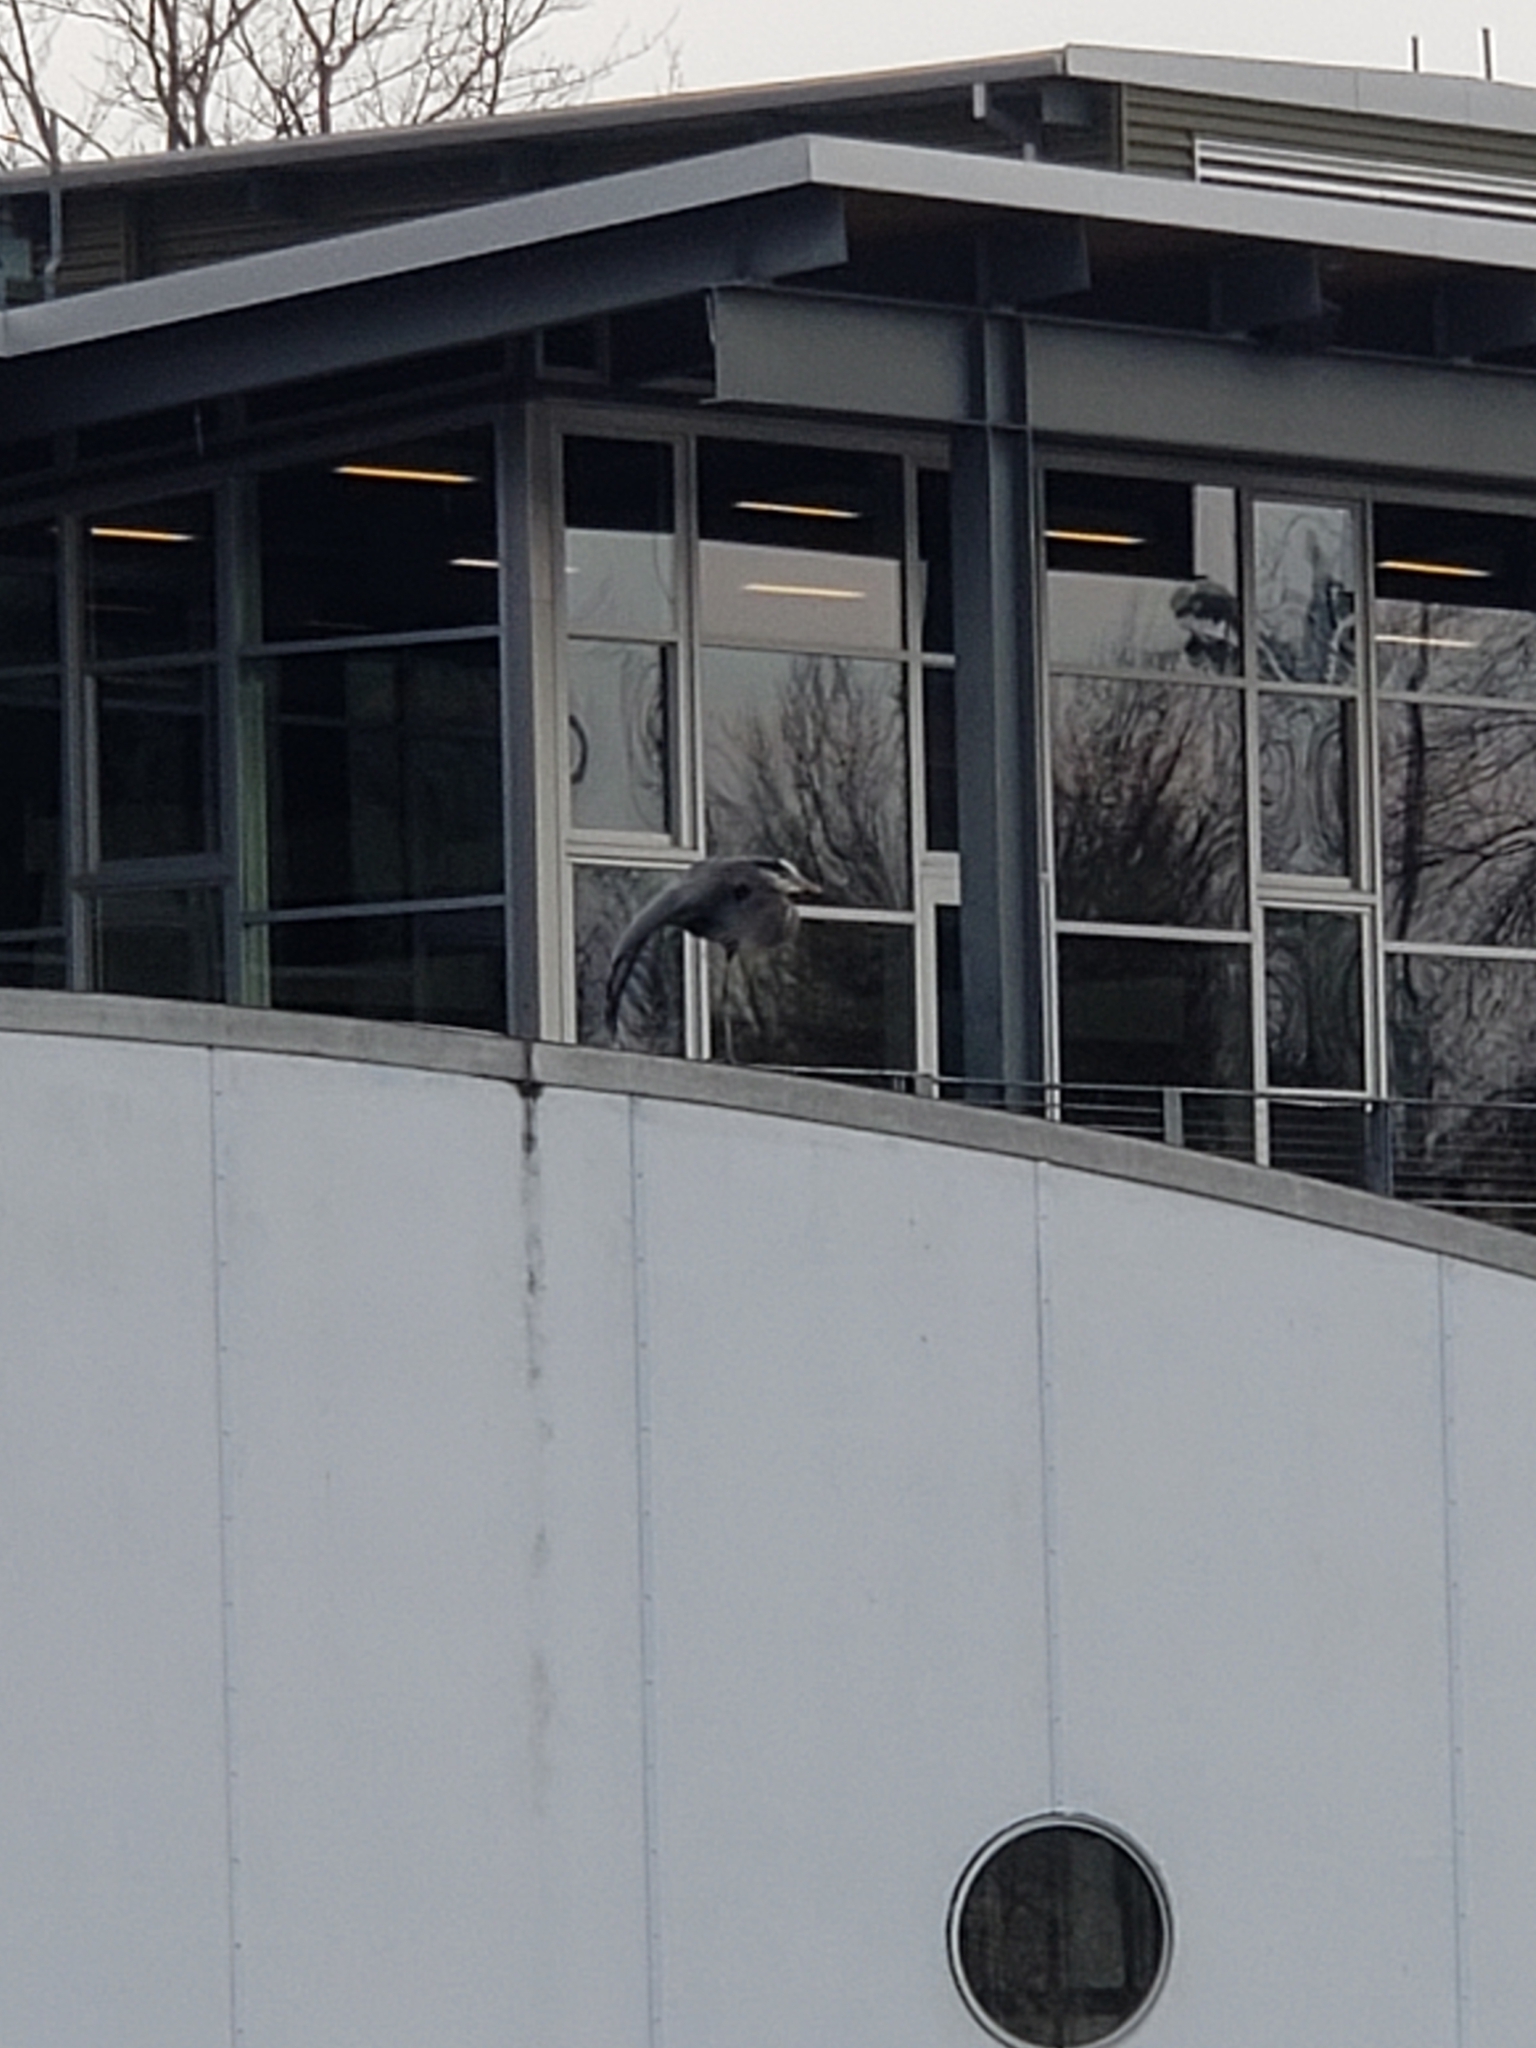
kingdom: Animalia
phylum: Chordata
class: Aves
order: Pelecaniformes
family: Ardeidae
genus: Ardea
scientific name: Ardea herodias
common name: Great blue heron
